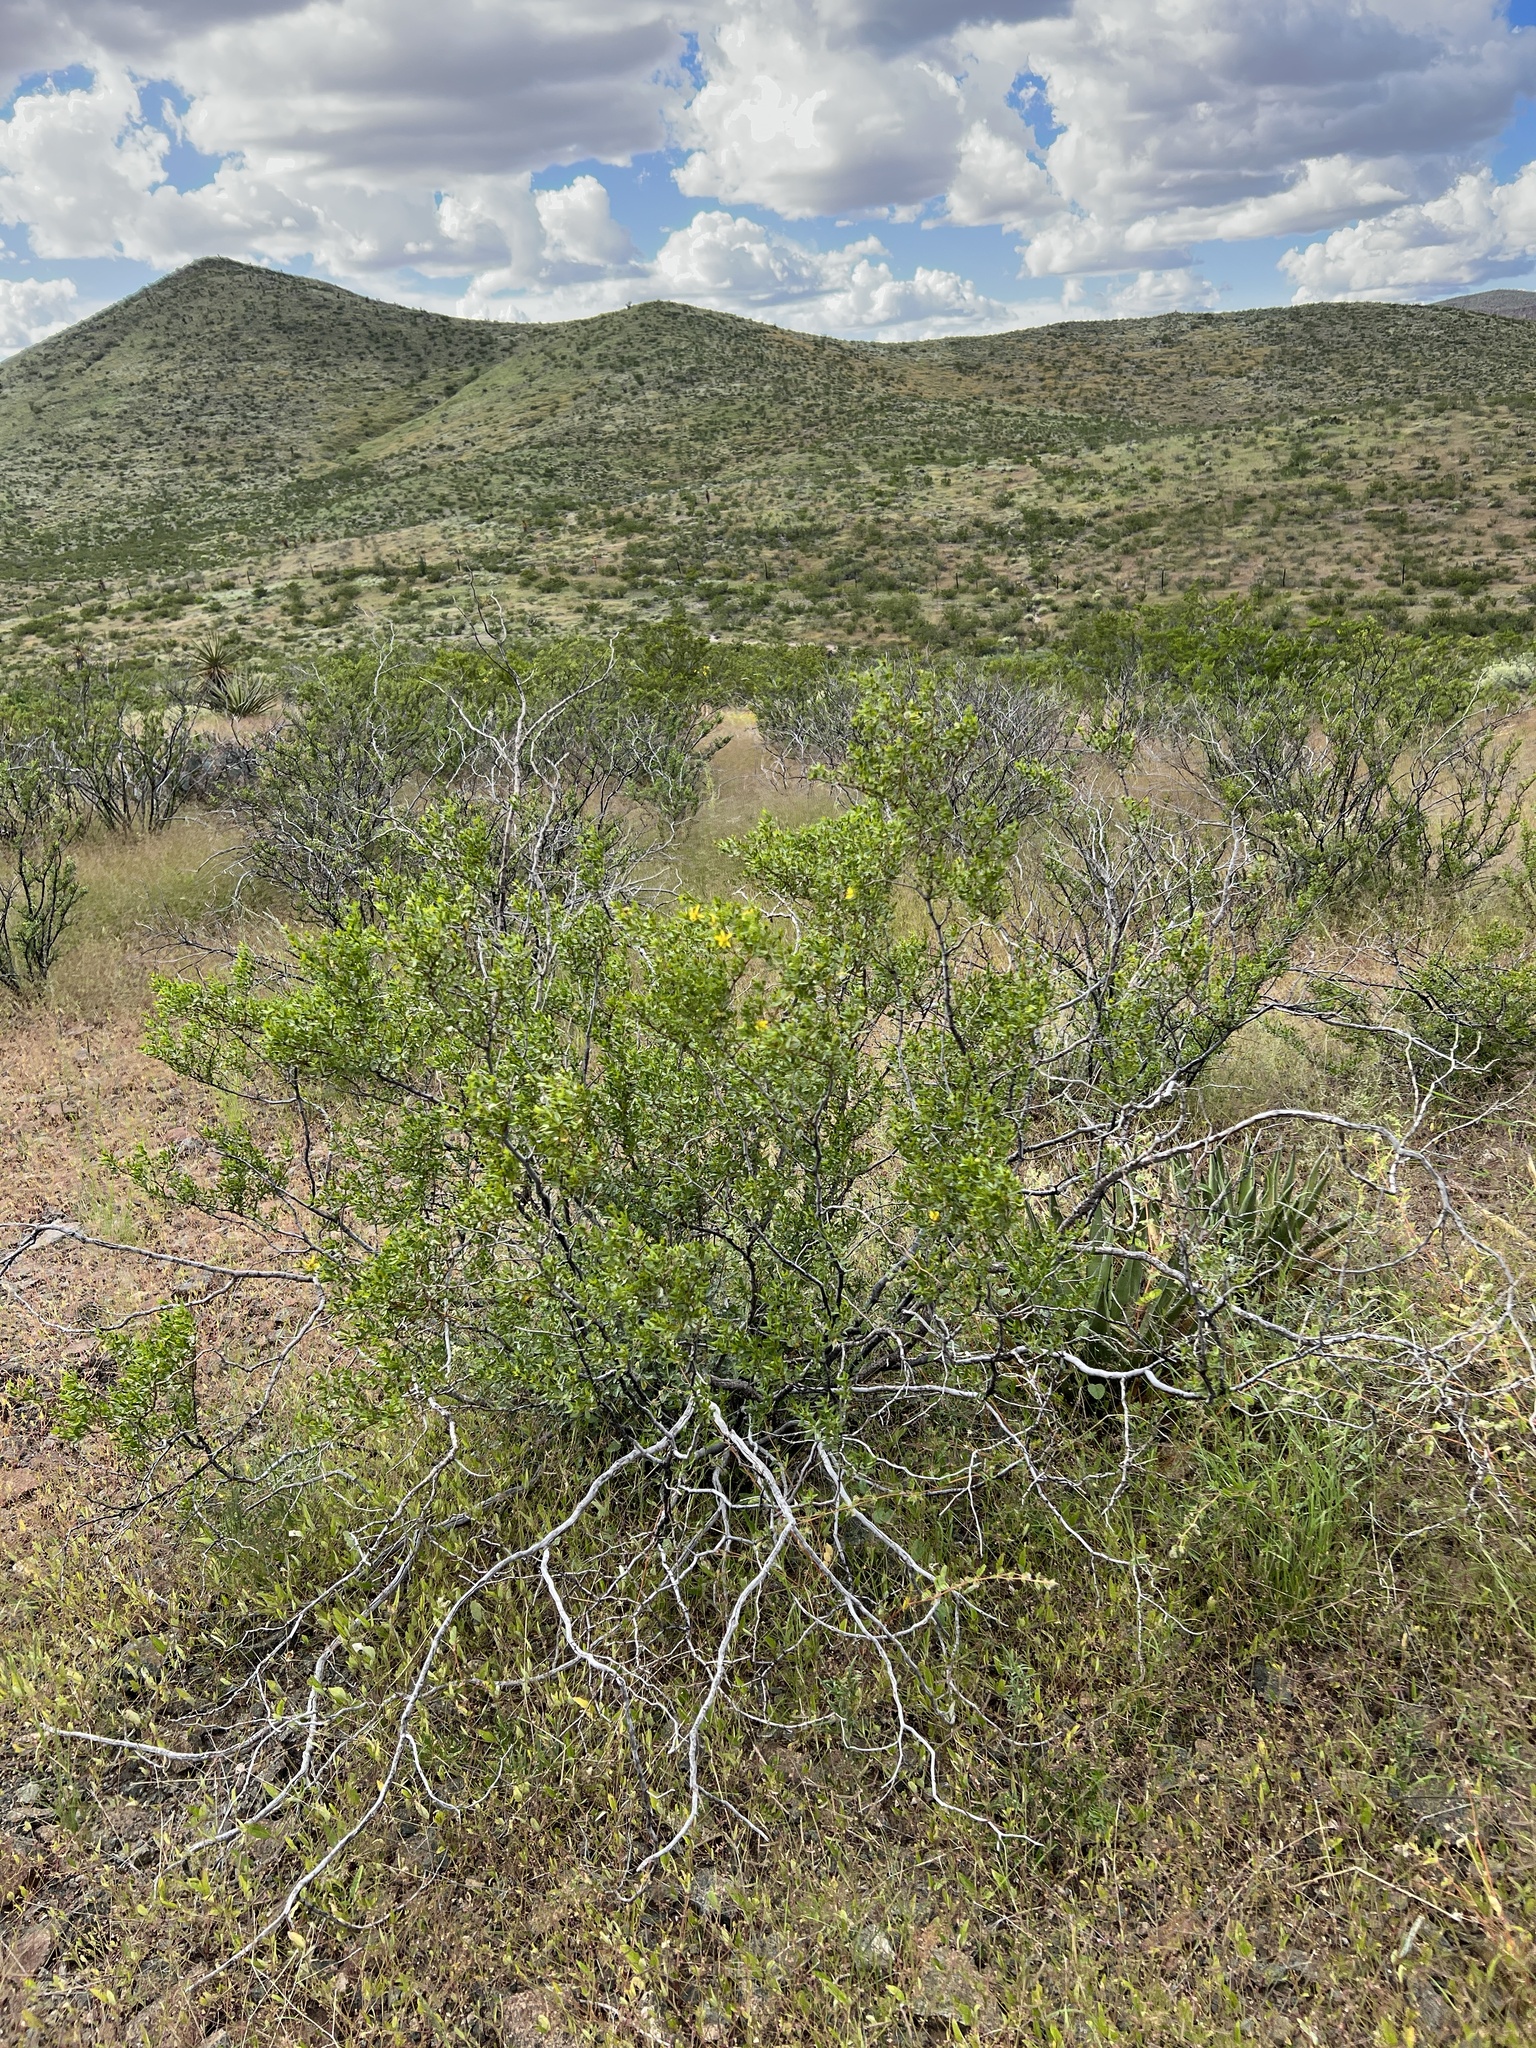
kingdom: Plantae
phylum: Tracheophyta
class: Magnoliopsida
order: Zygophyllales
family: Zygophyllaceae
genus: Larrea
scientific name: Larrea tridentata
